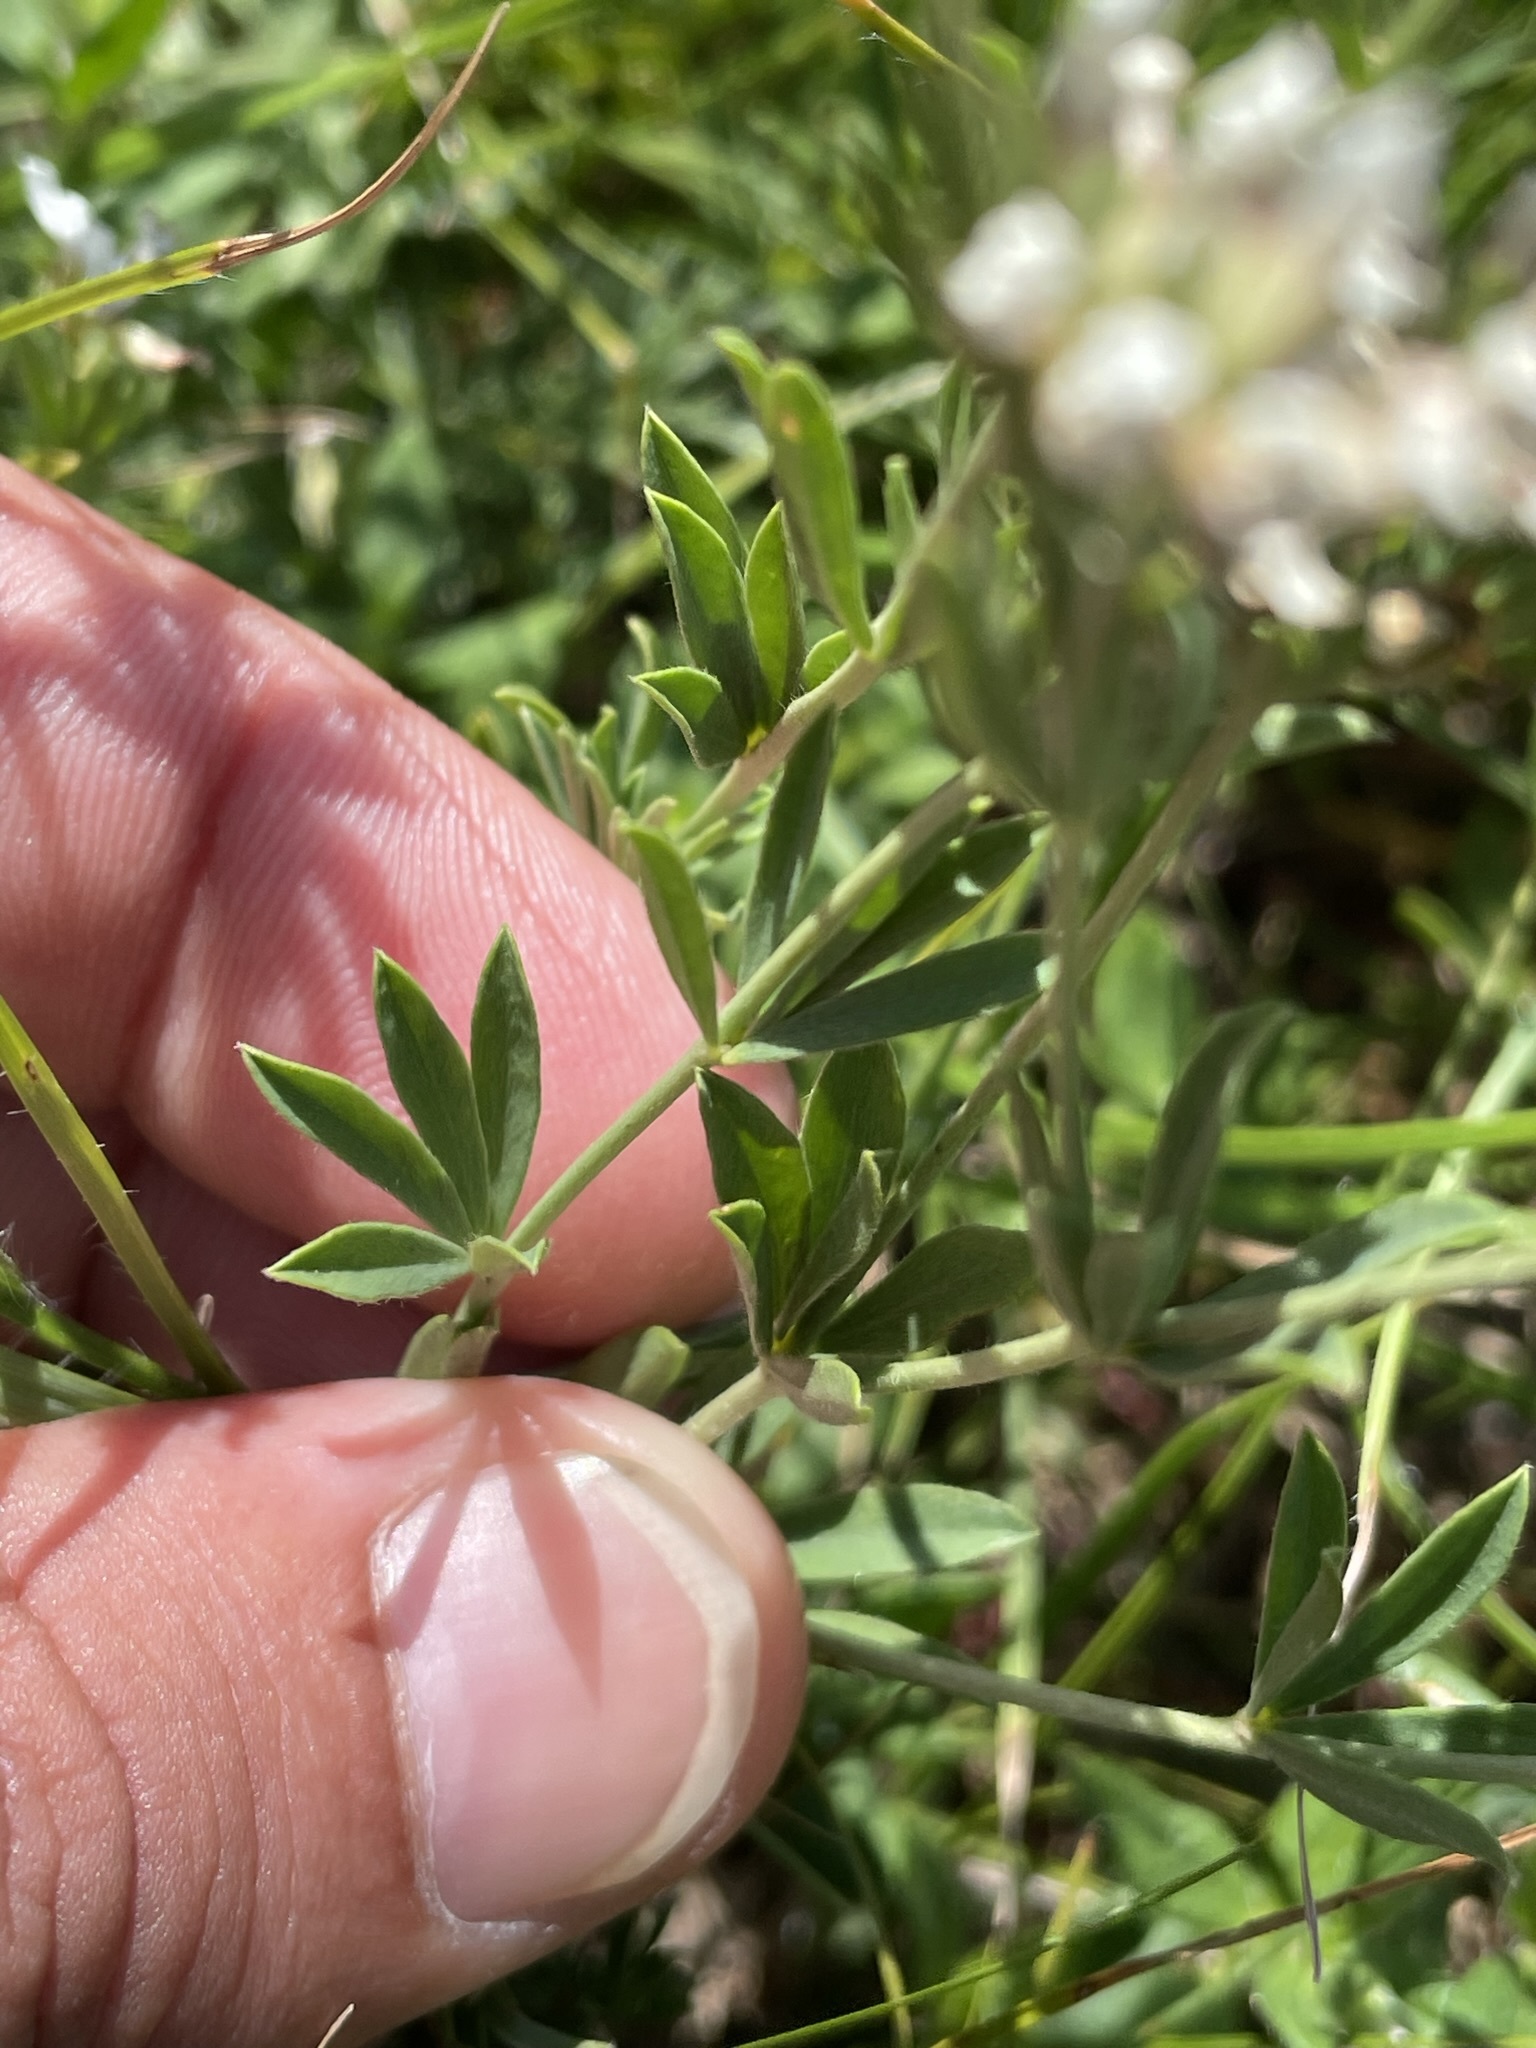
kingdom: Plantae
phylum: Tracheophyta
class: Magnoliopsida
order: Fabales
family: Fabaceae
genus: Lotus
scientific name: Lotus germanicus
